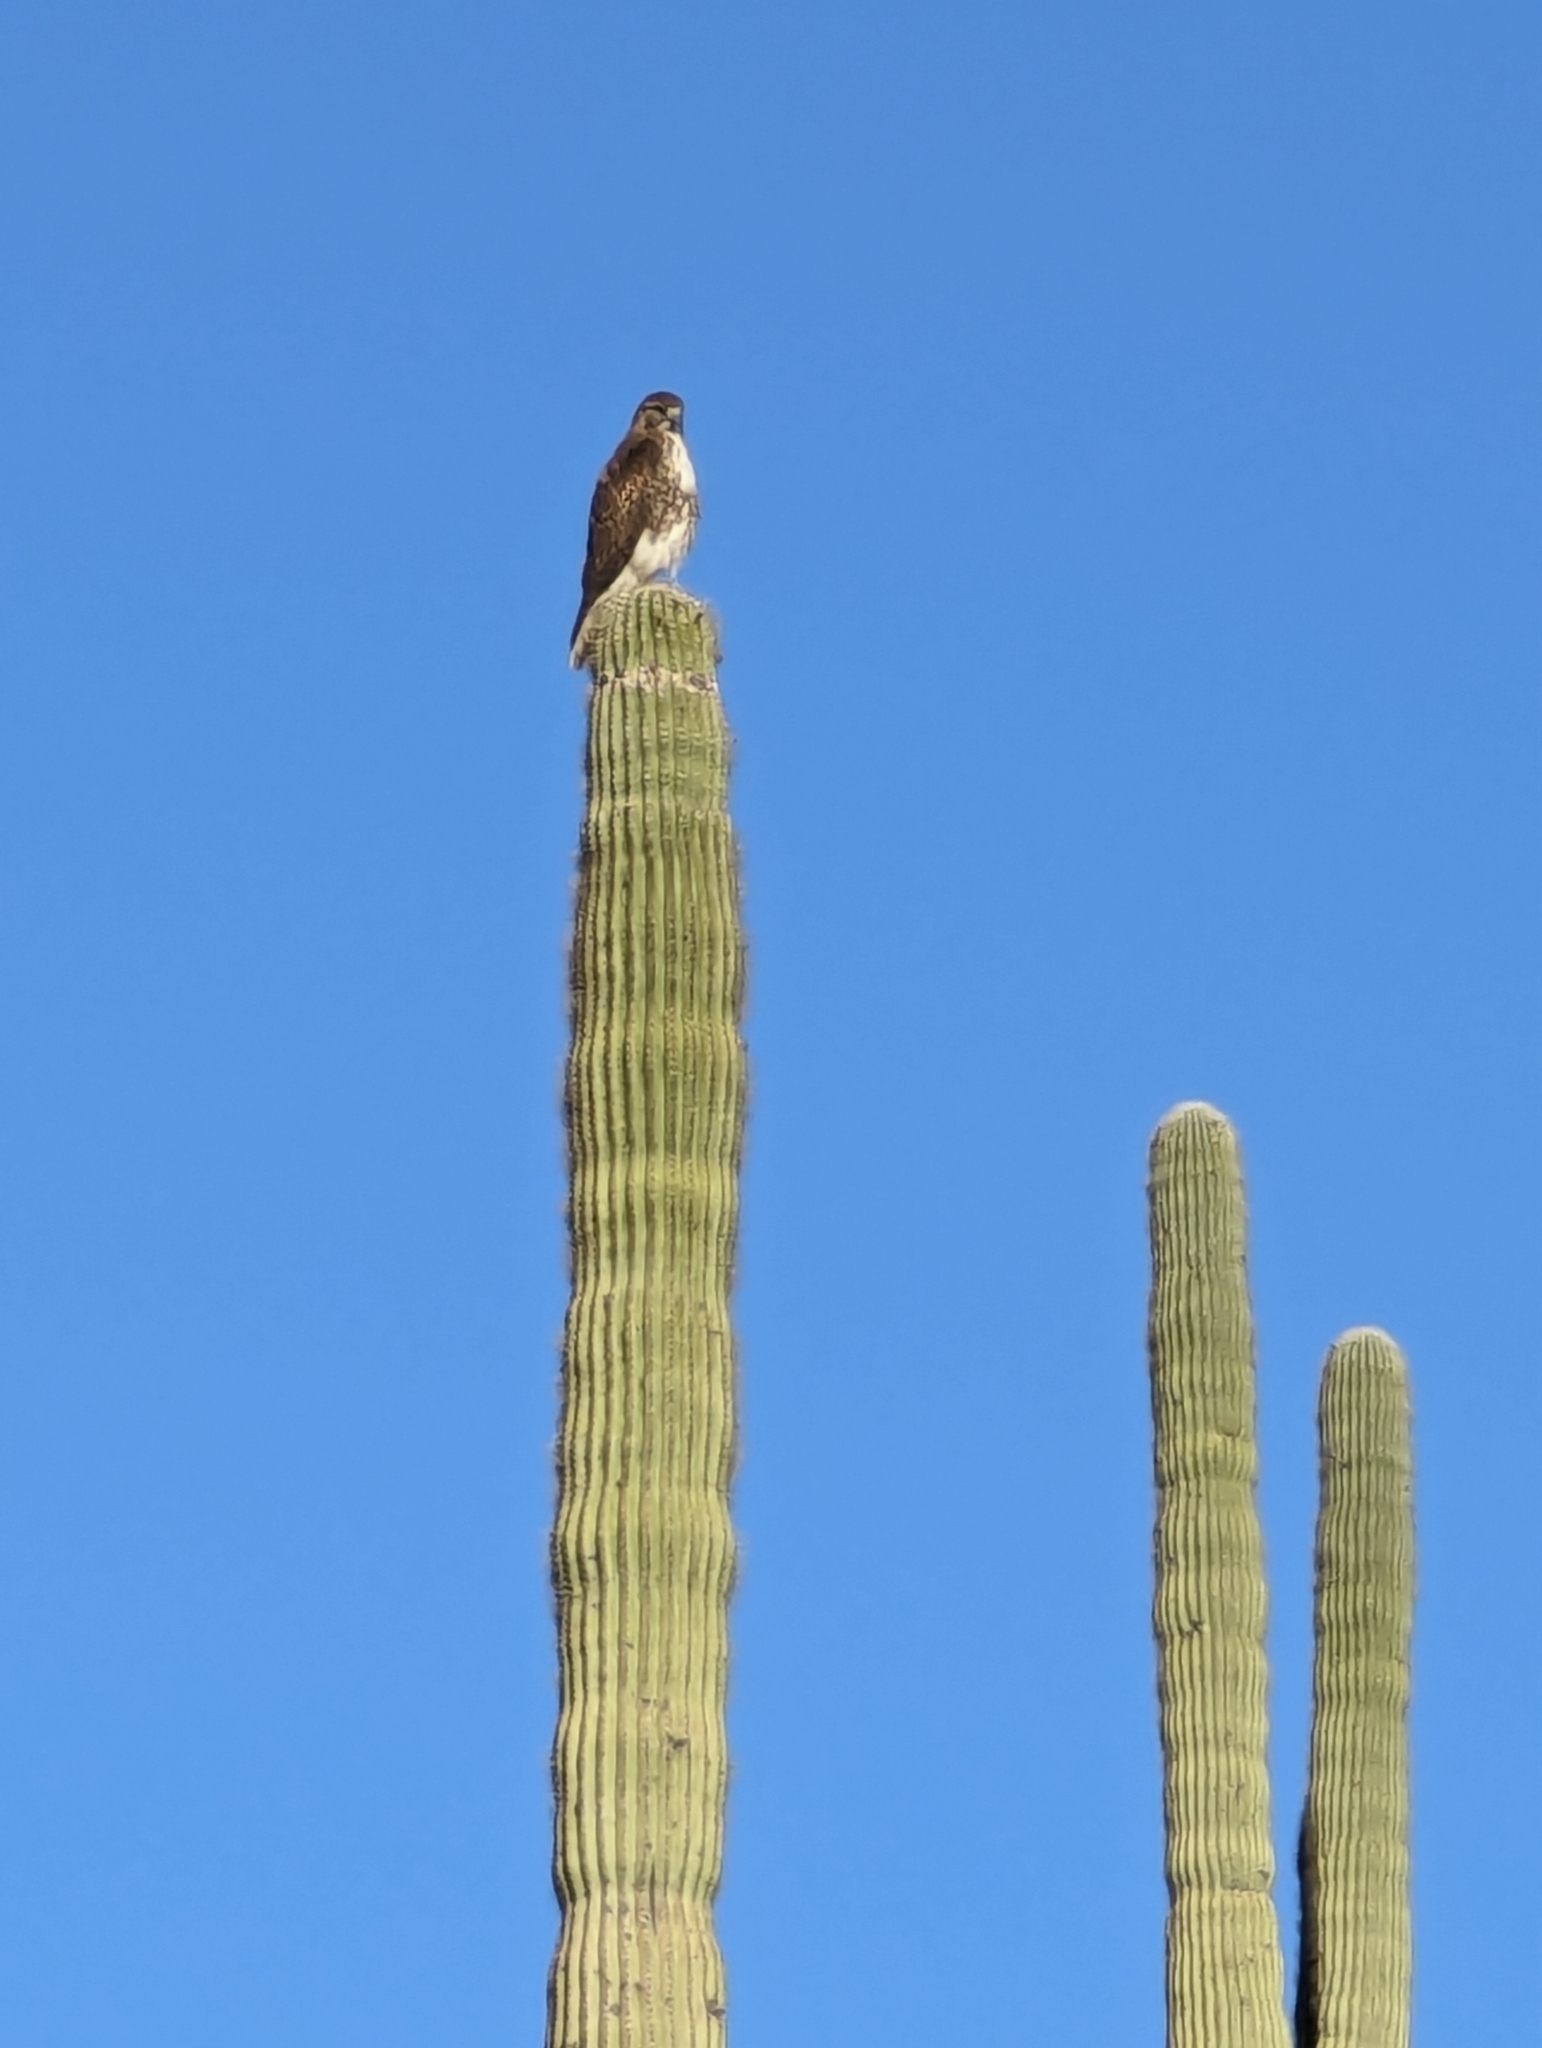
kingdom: Animalia
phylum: Chordata
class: Aves
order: Accipitriformes
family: Accipitridae
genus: Buteo
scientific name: Buteo jamaicensis
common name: Red-tailed hawk
